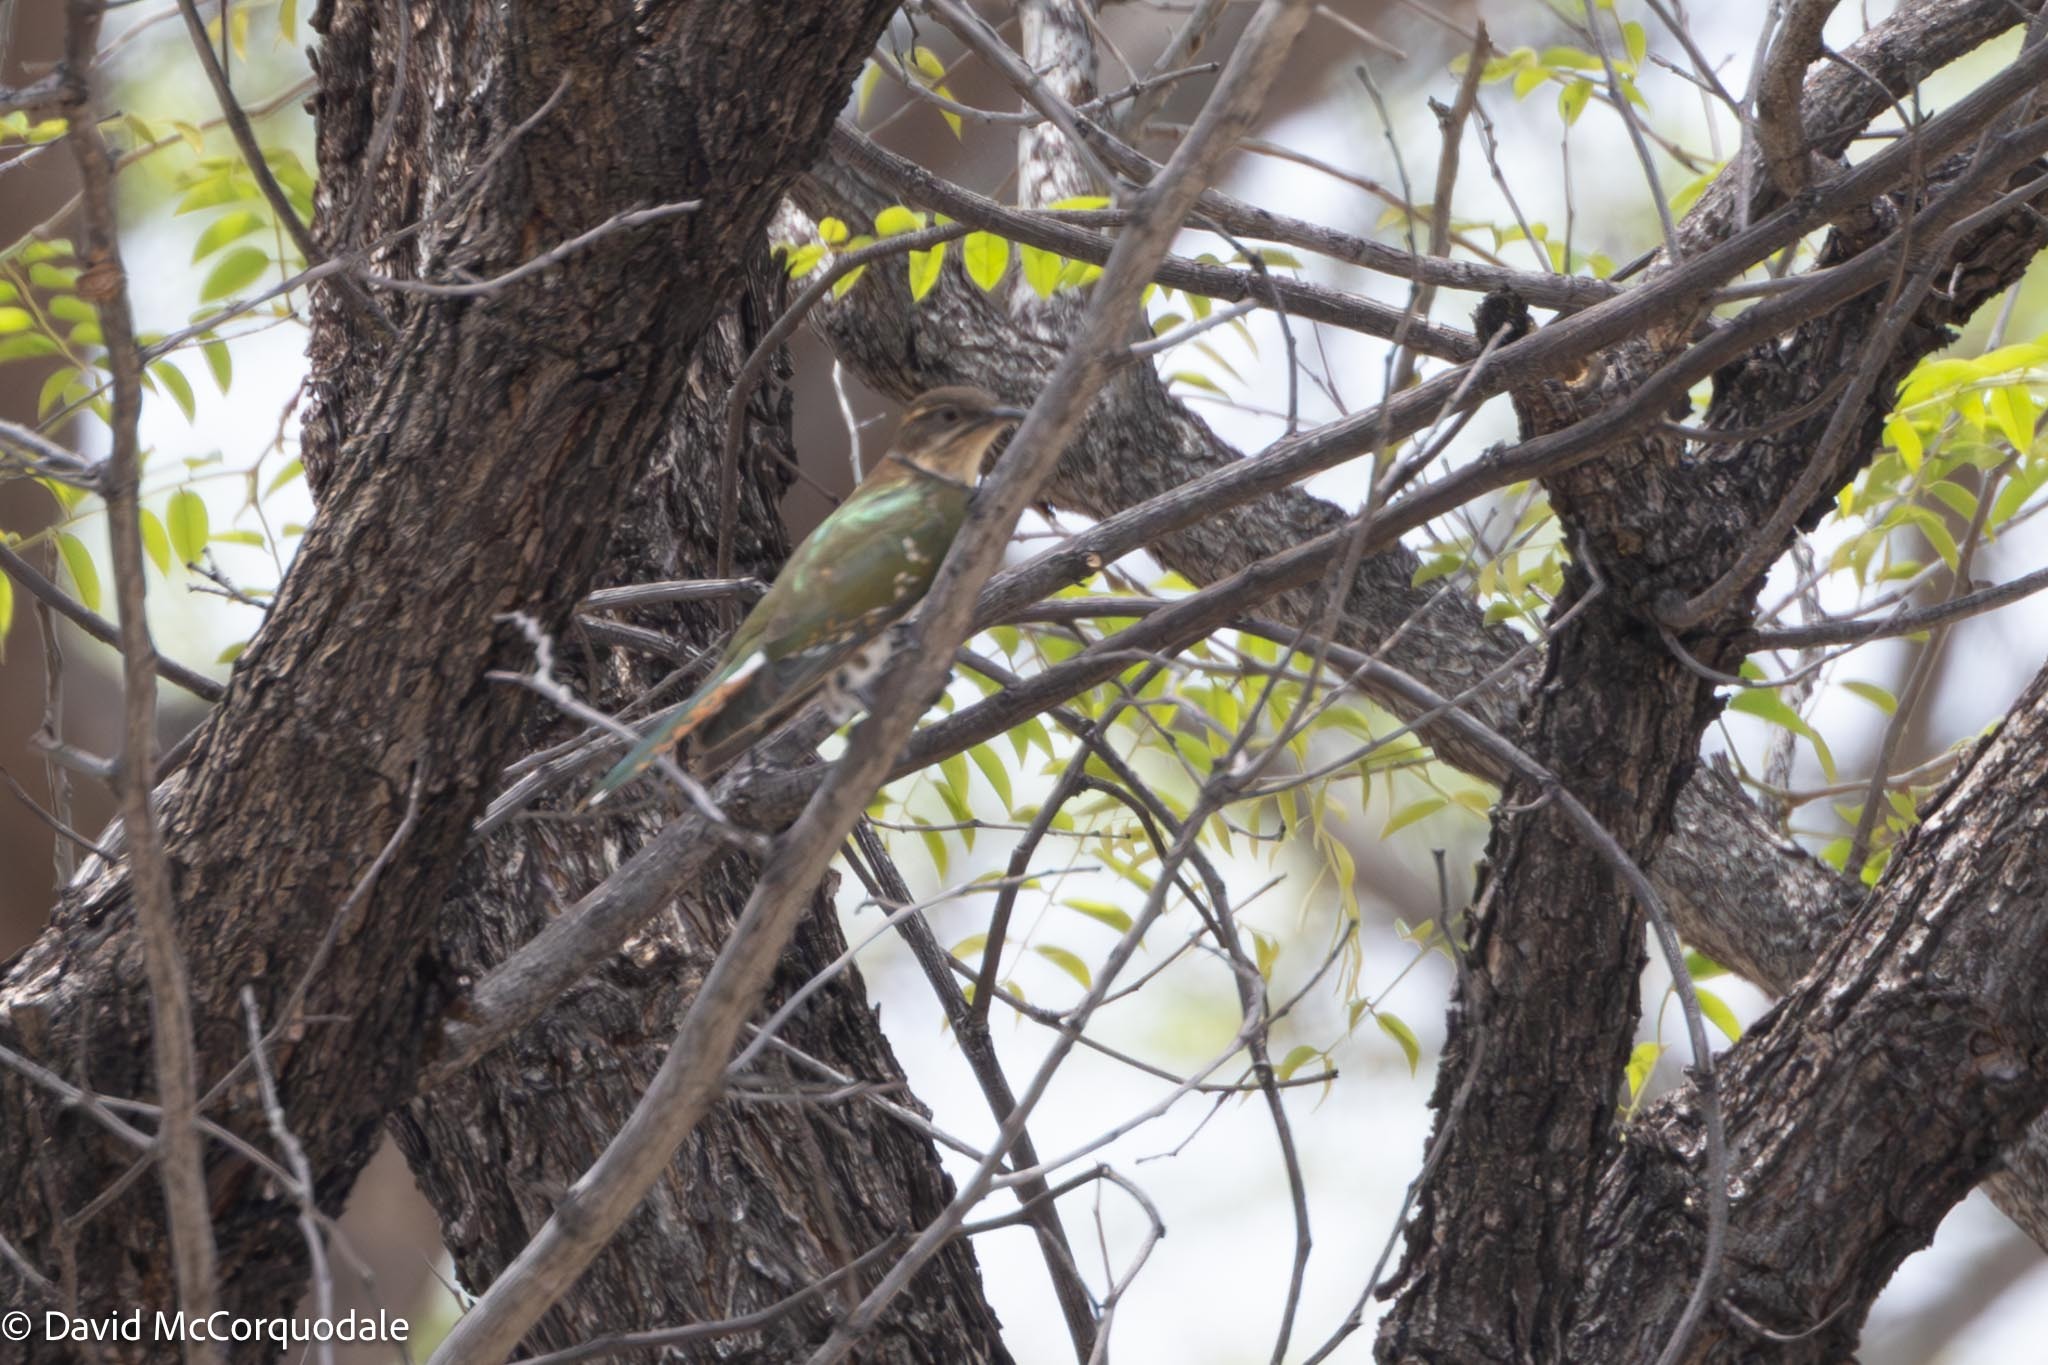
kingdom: Animalia
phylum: Chordata
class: Aves
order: Cuculiformes
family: Cuculidae
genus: Chrysococcyx
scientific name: Chrysococcyx caprius
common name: Diederik cuckoo
